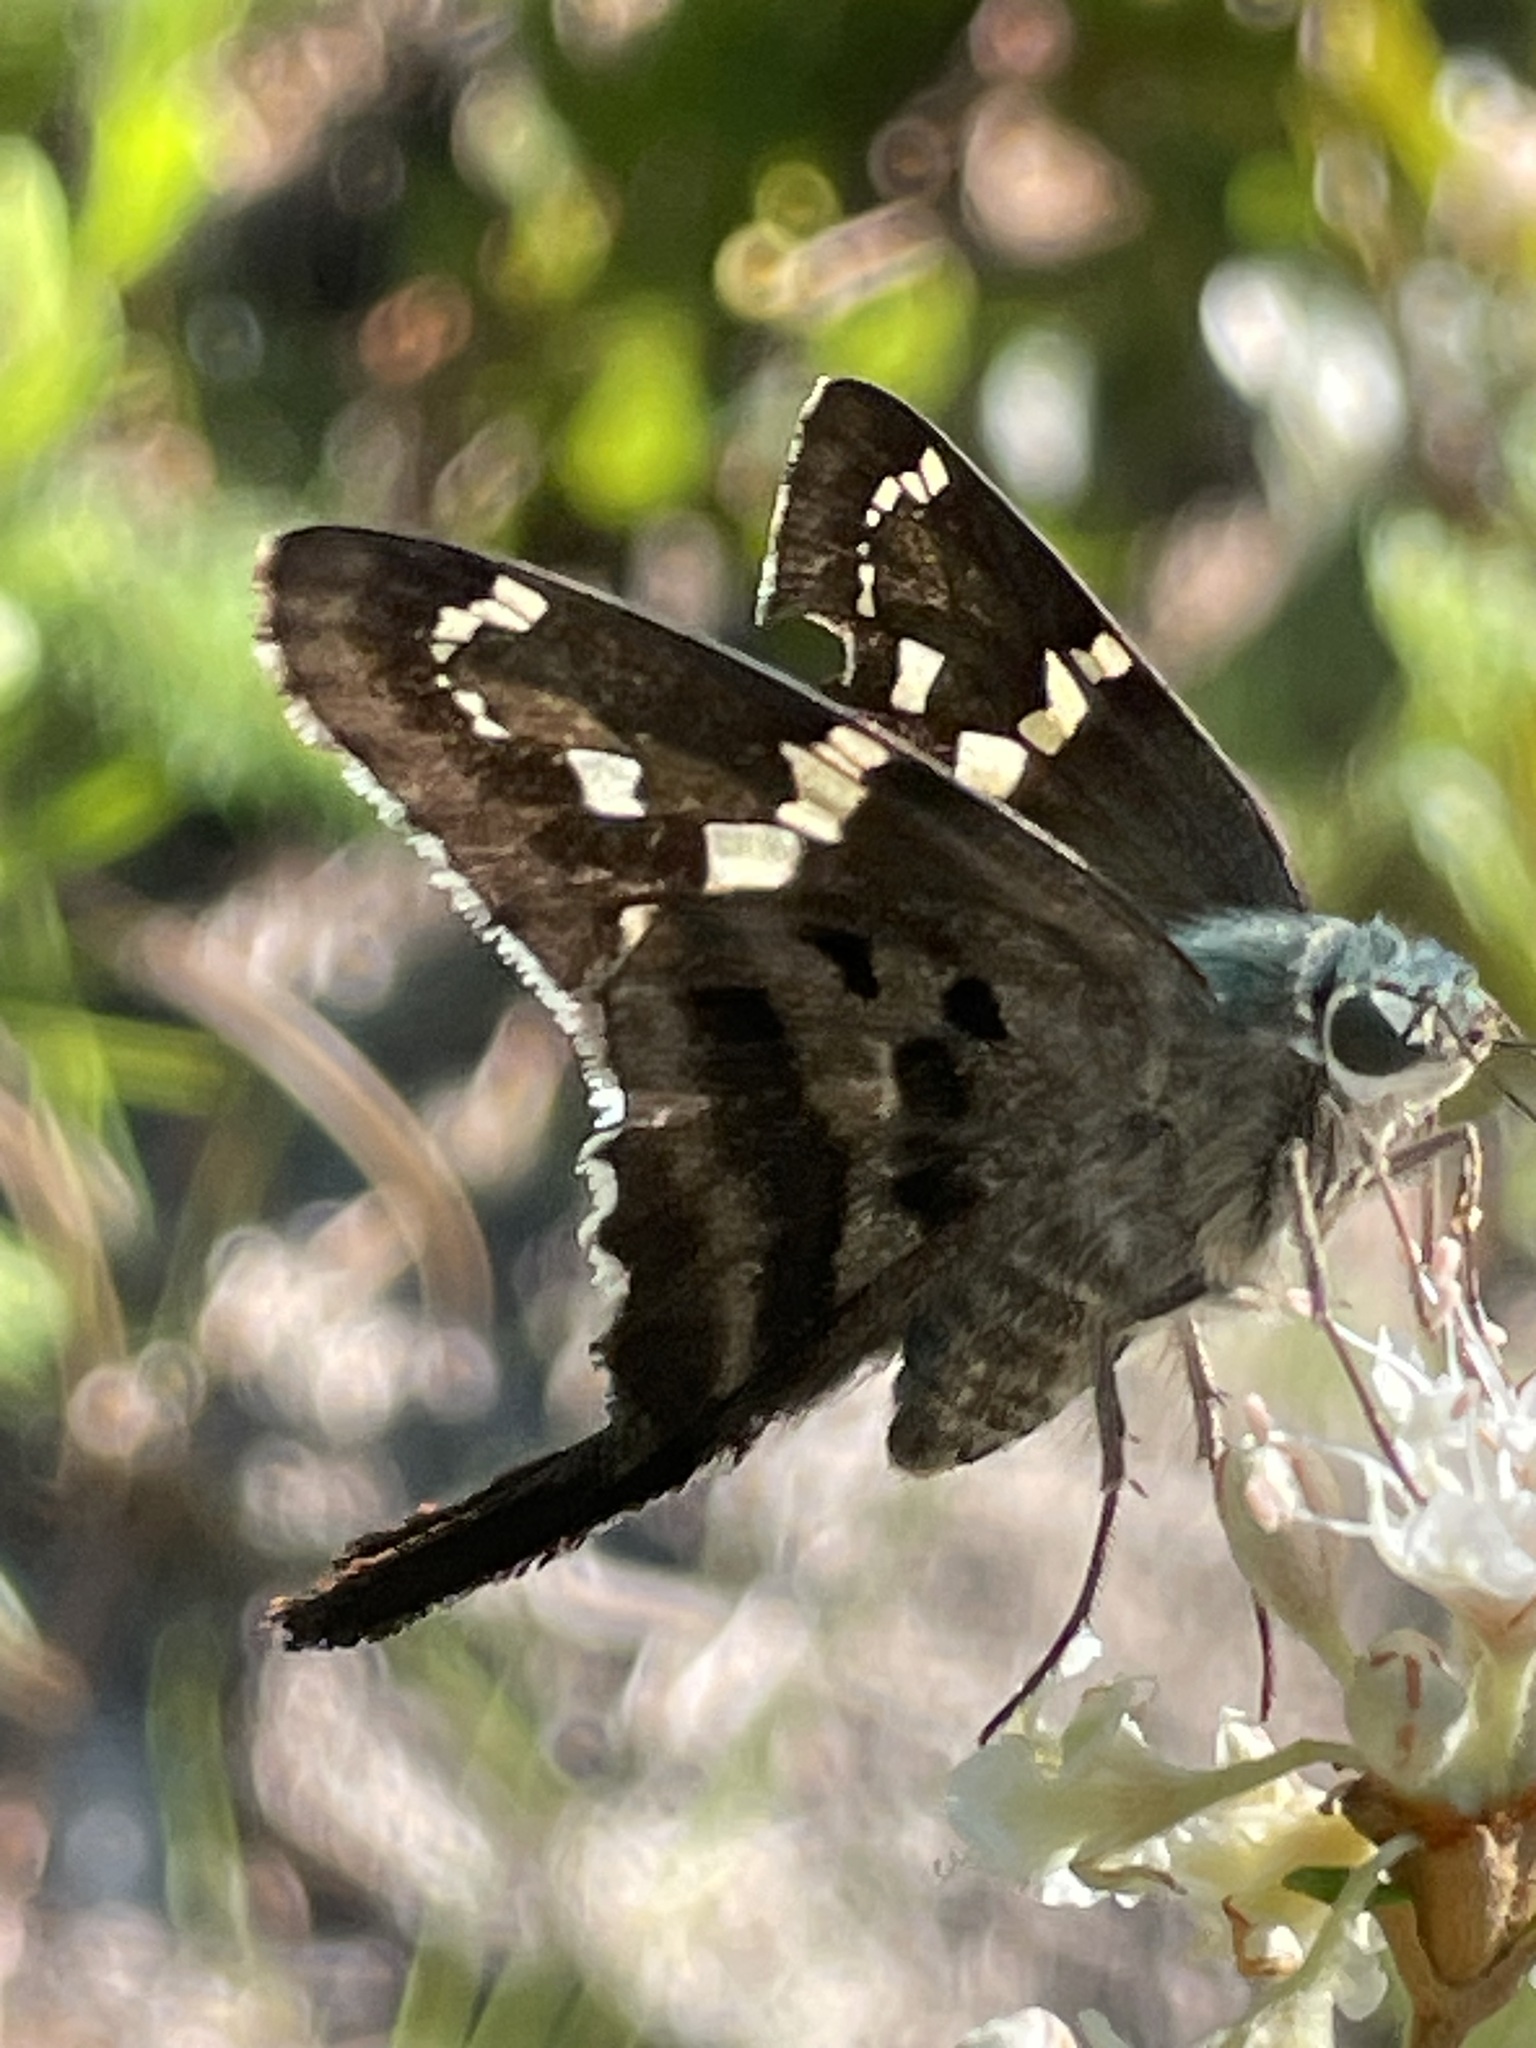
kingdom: Animalia
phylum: Arthropoda
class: Insecta
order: Lepidoptera
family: Hesperiidae
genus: Urbanus
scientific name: Urbanus proteus
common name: Long-tailed skipper
